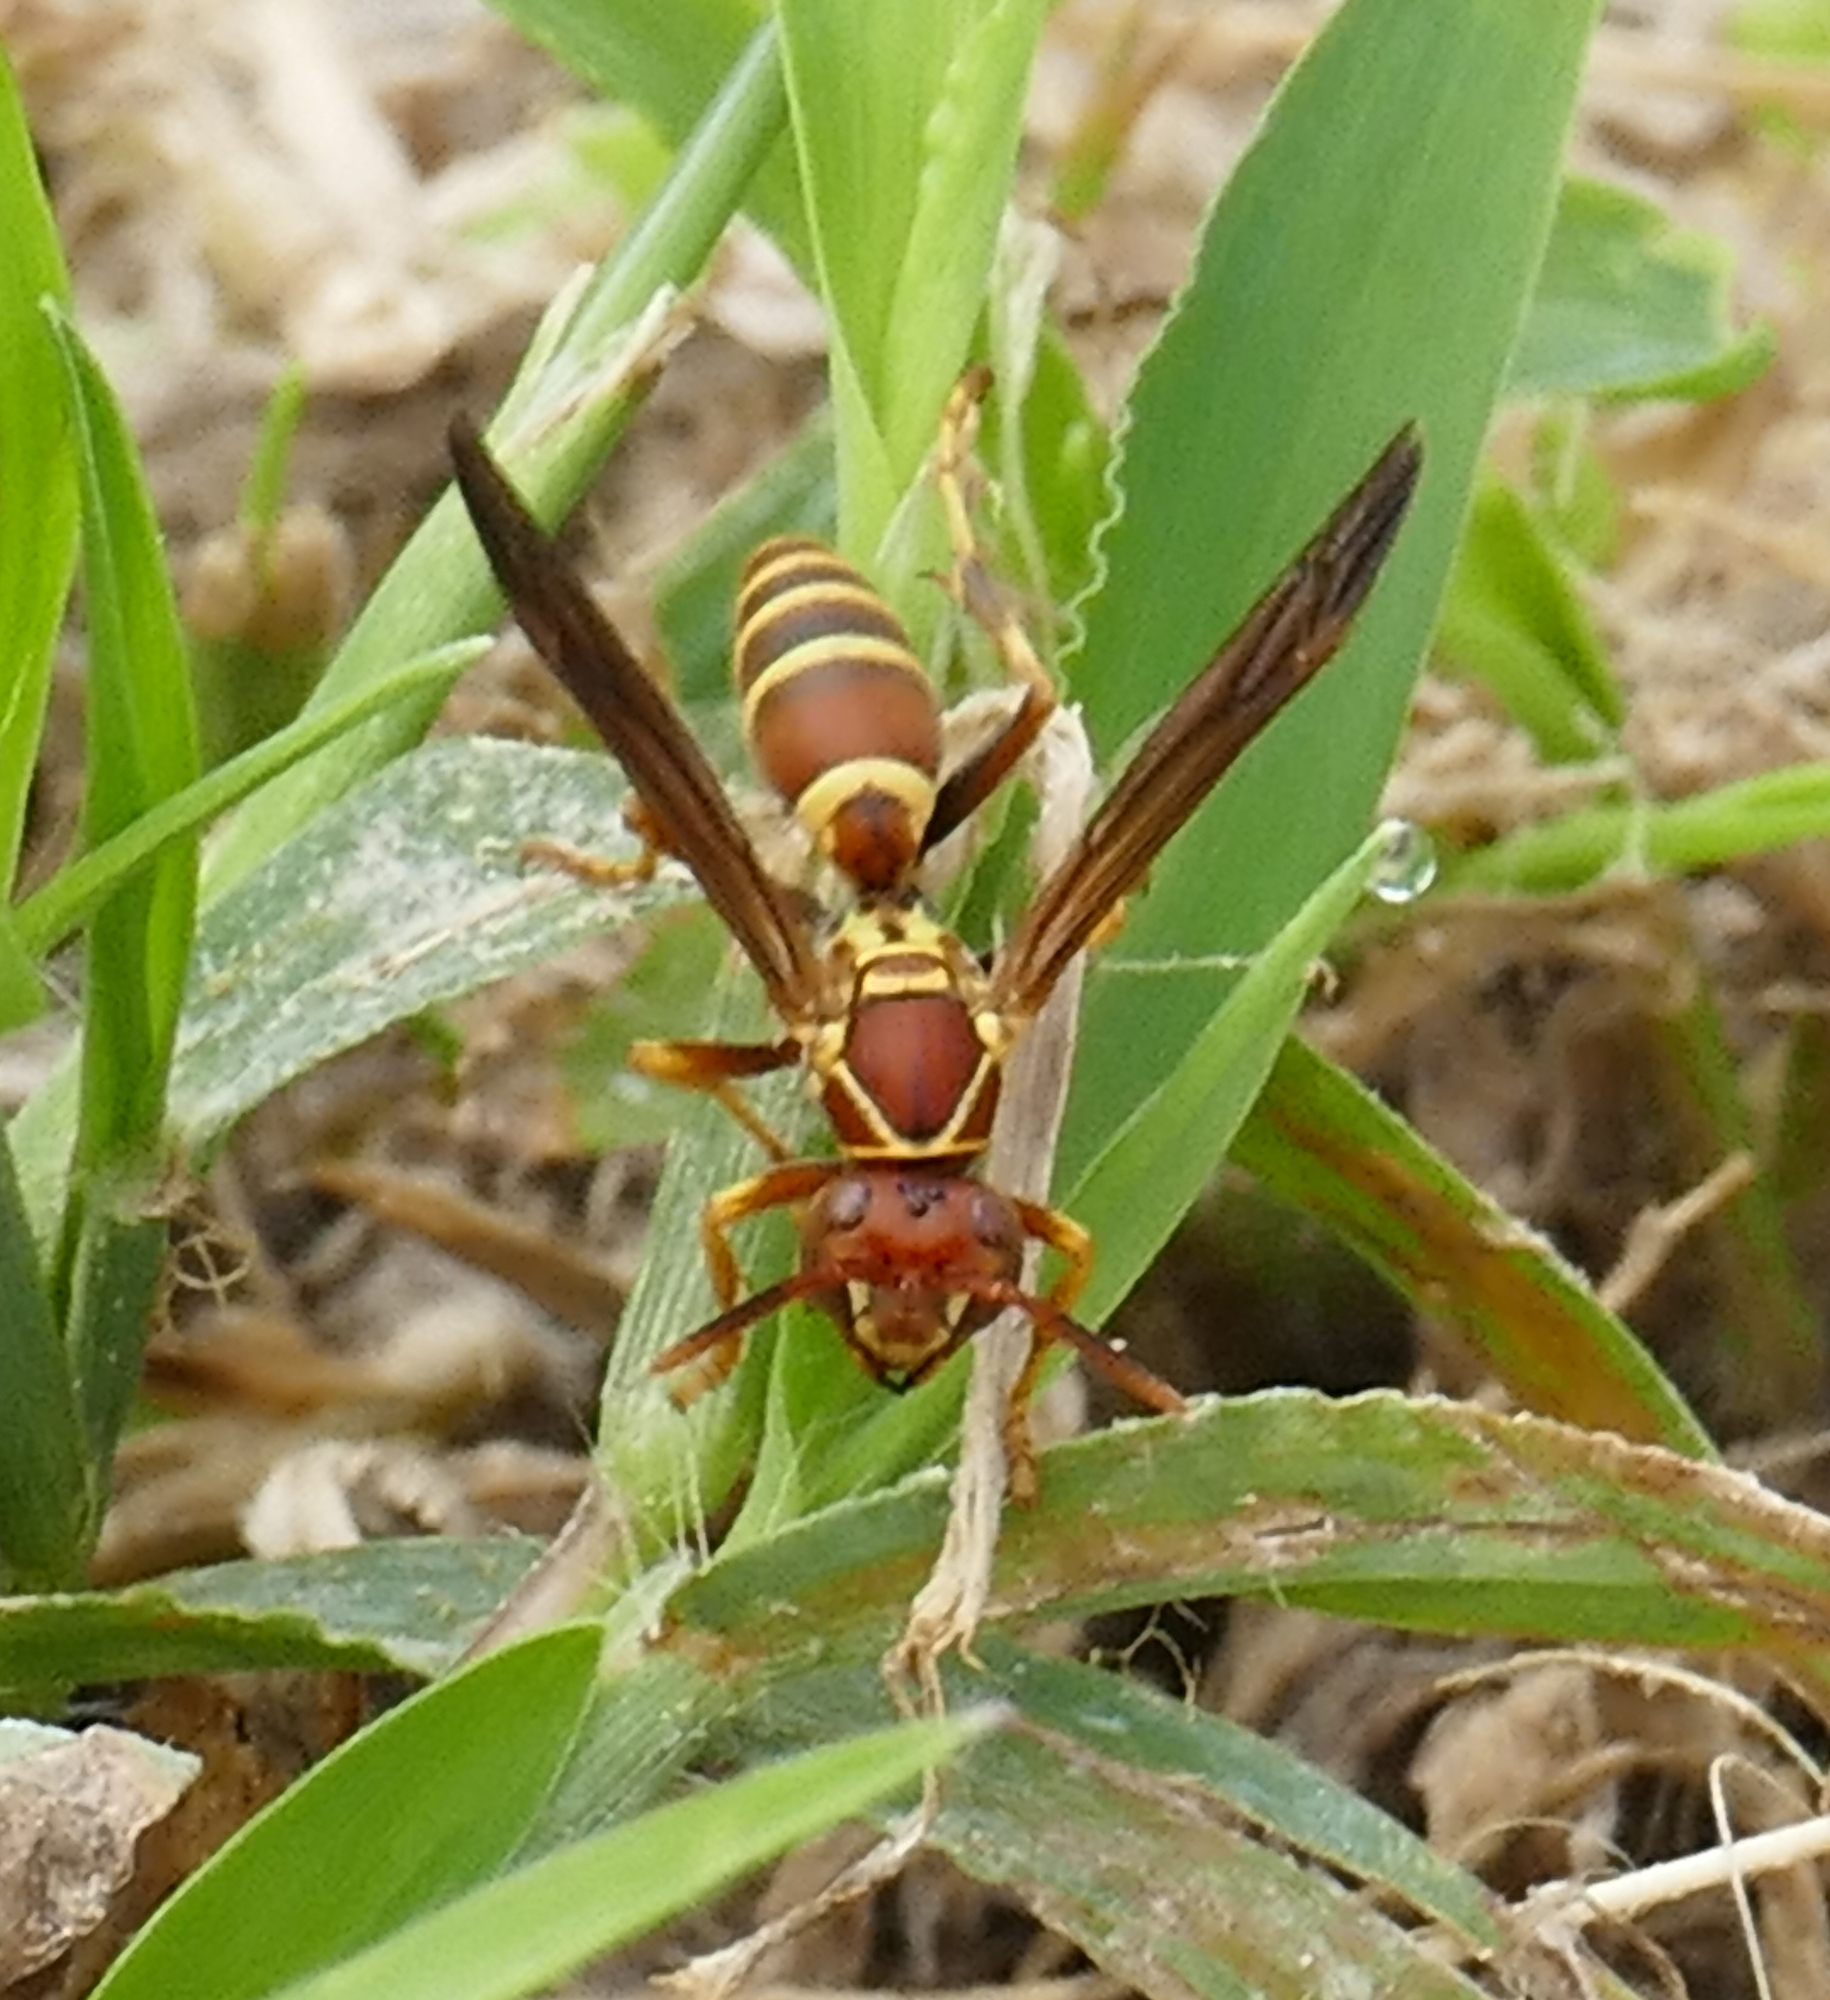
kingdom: Animalia
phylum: Arthropoda
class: Insecta
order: Hymenoptera
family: Eumenidae
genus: Polistes
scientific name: Polistes dorsalis
